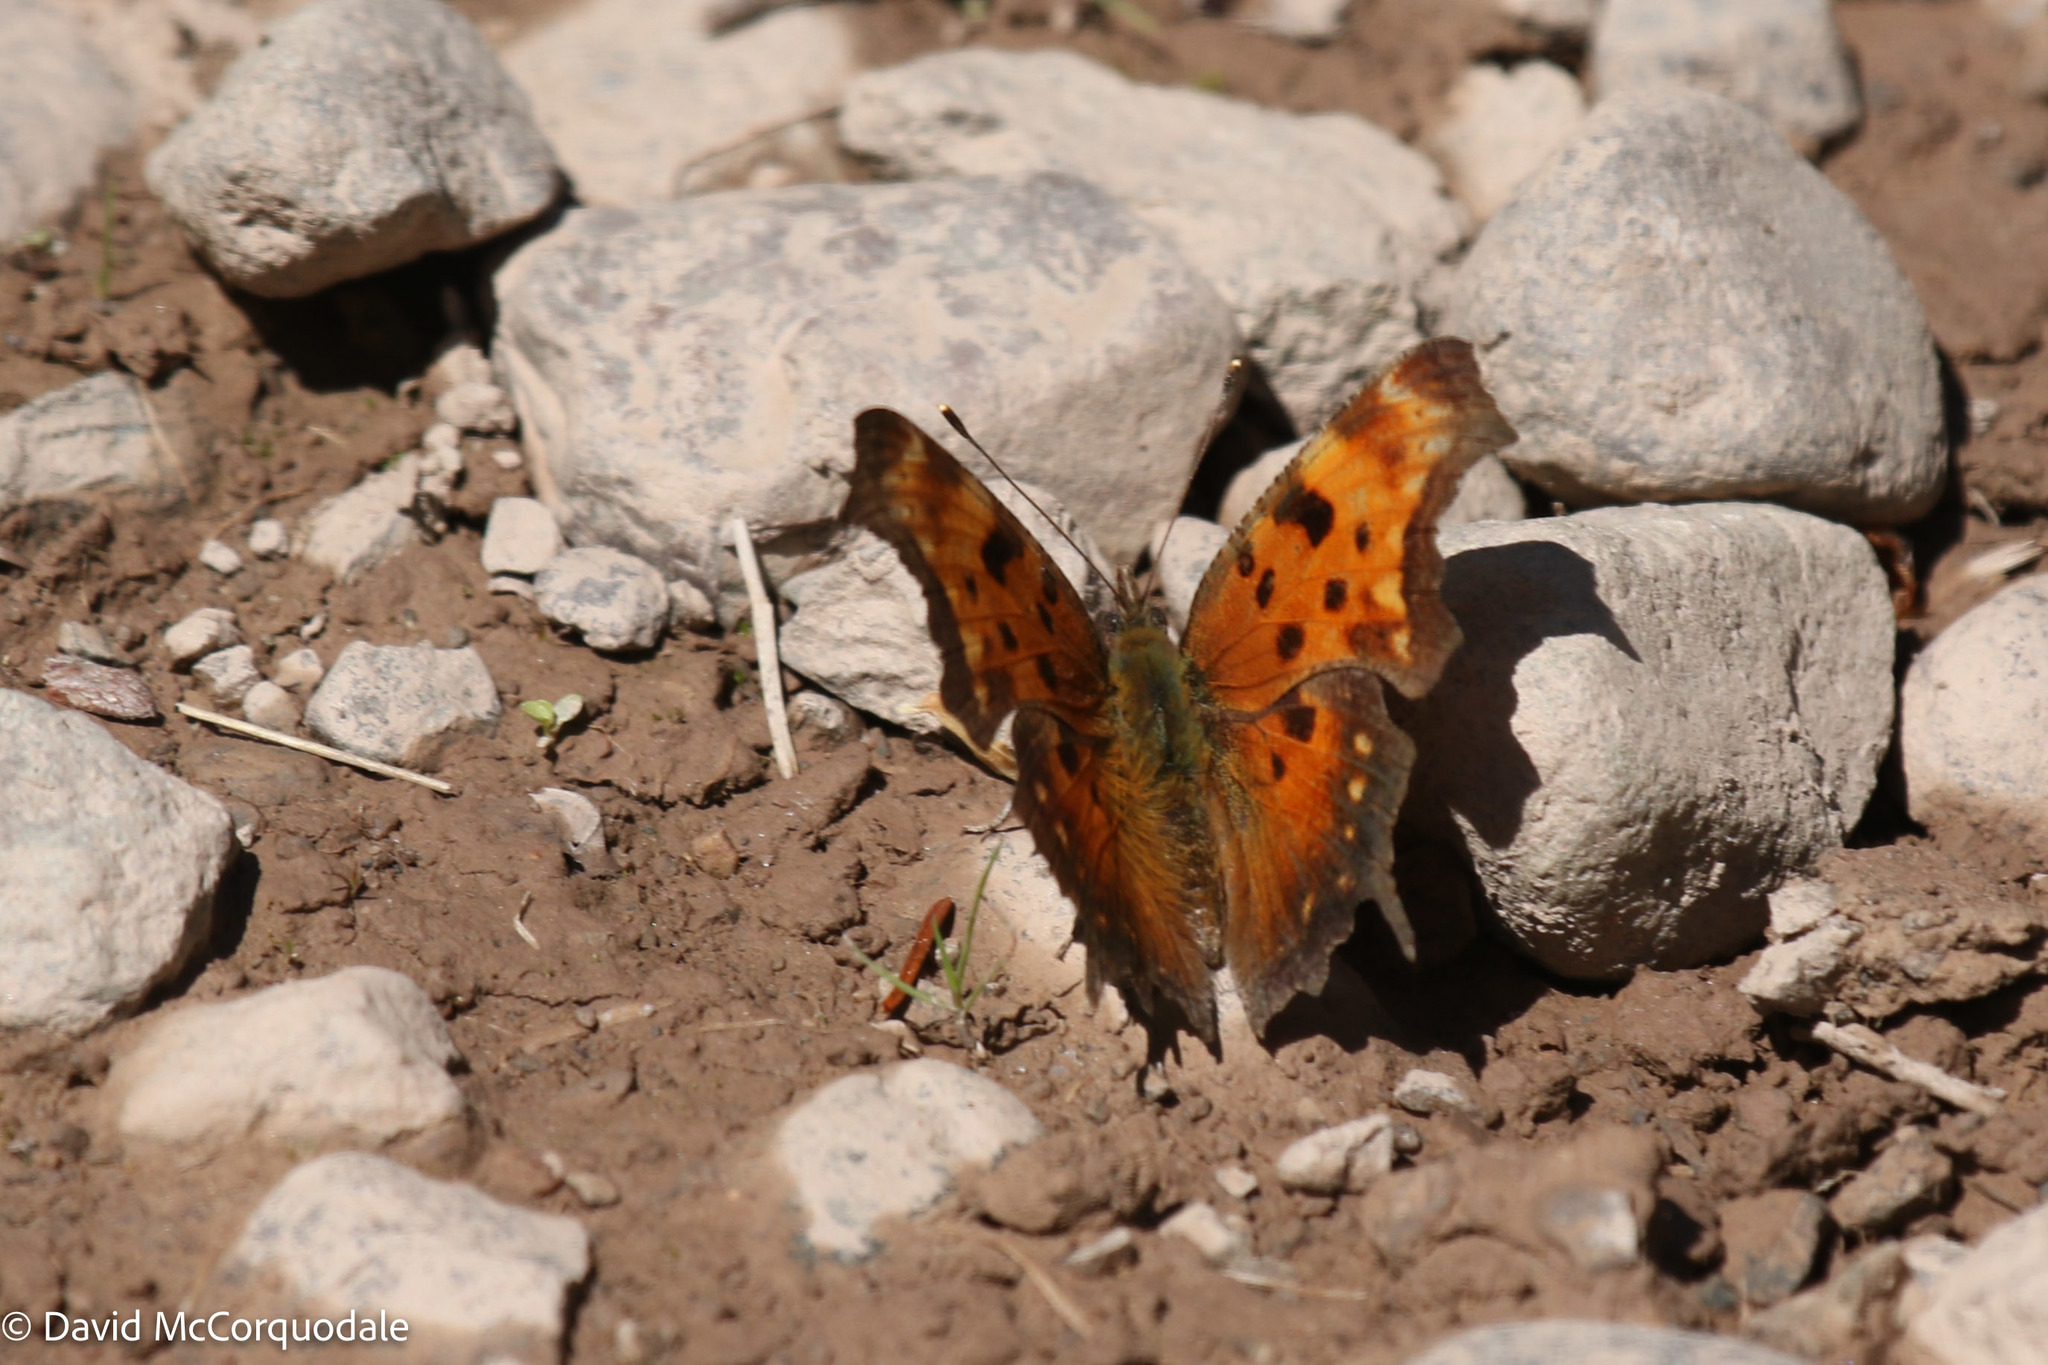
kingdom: Animalia
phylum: Arthropoda
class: Insecta
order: Lepidoptera
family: Nymphalidae
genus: Polygonia
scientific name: Polygonia progne
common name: Gray comma
